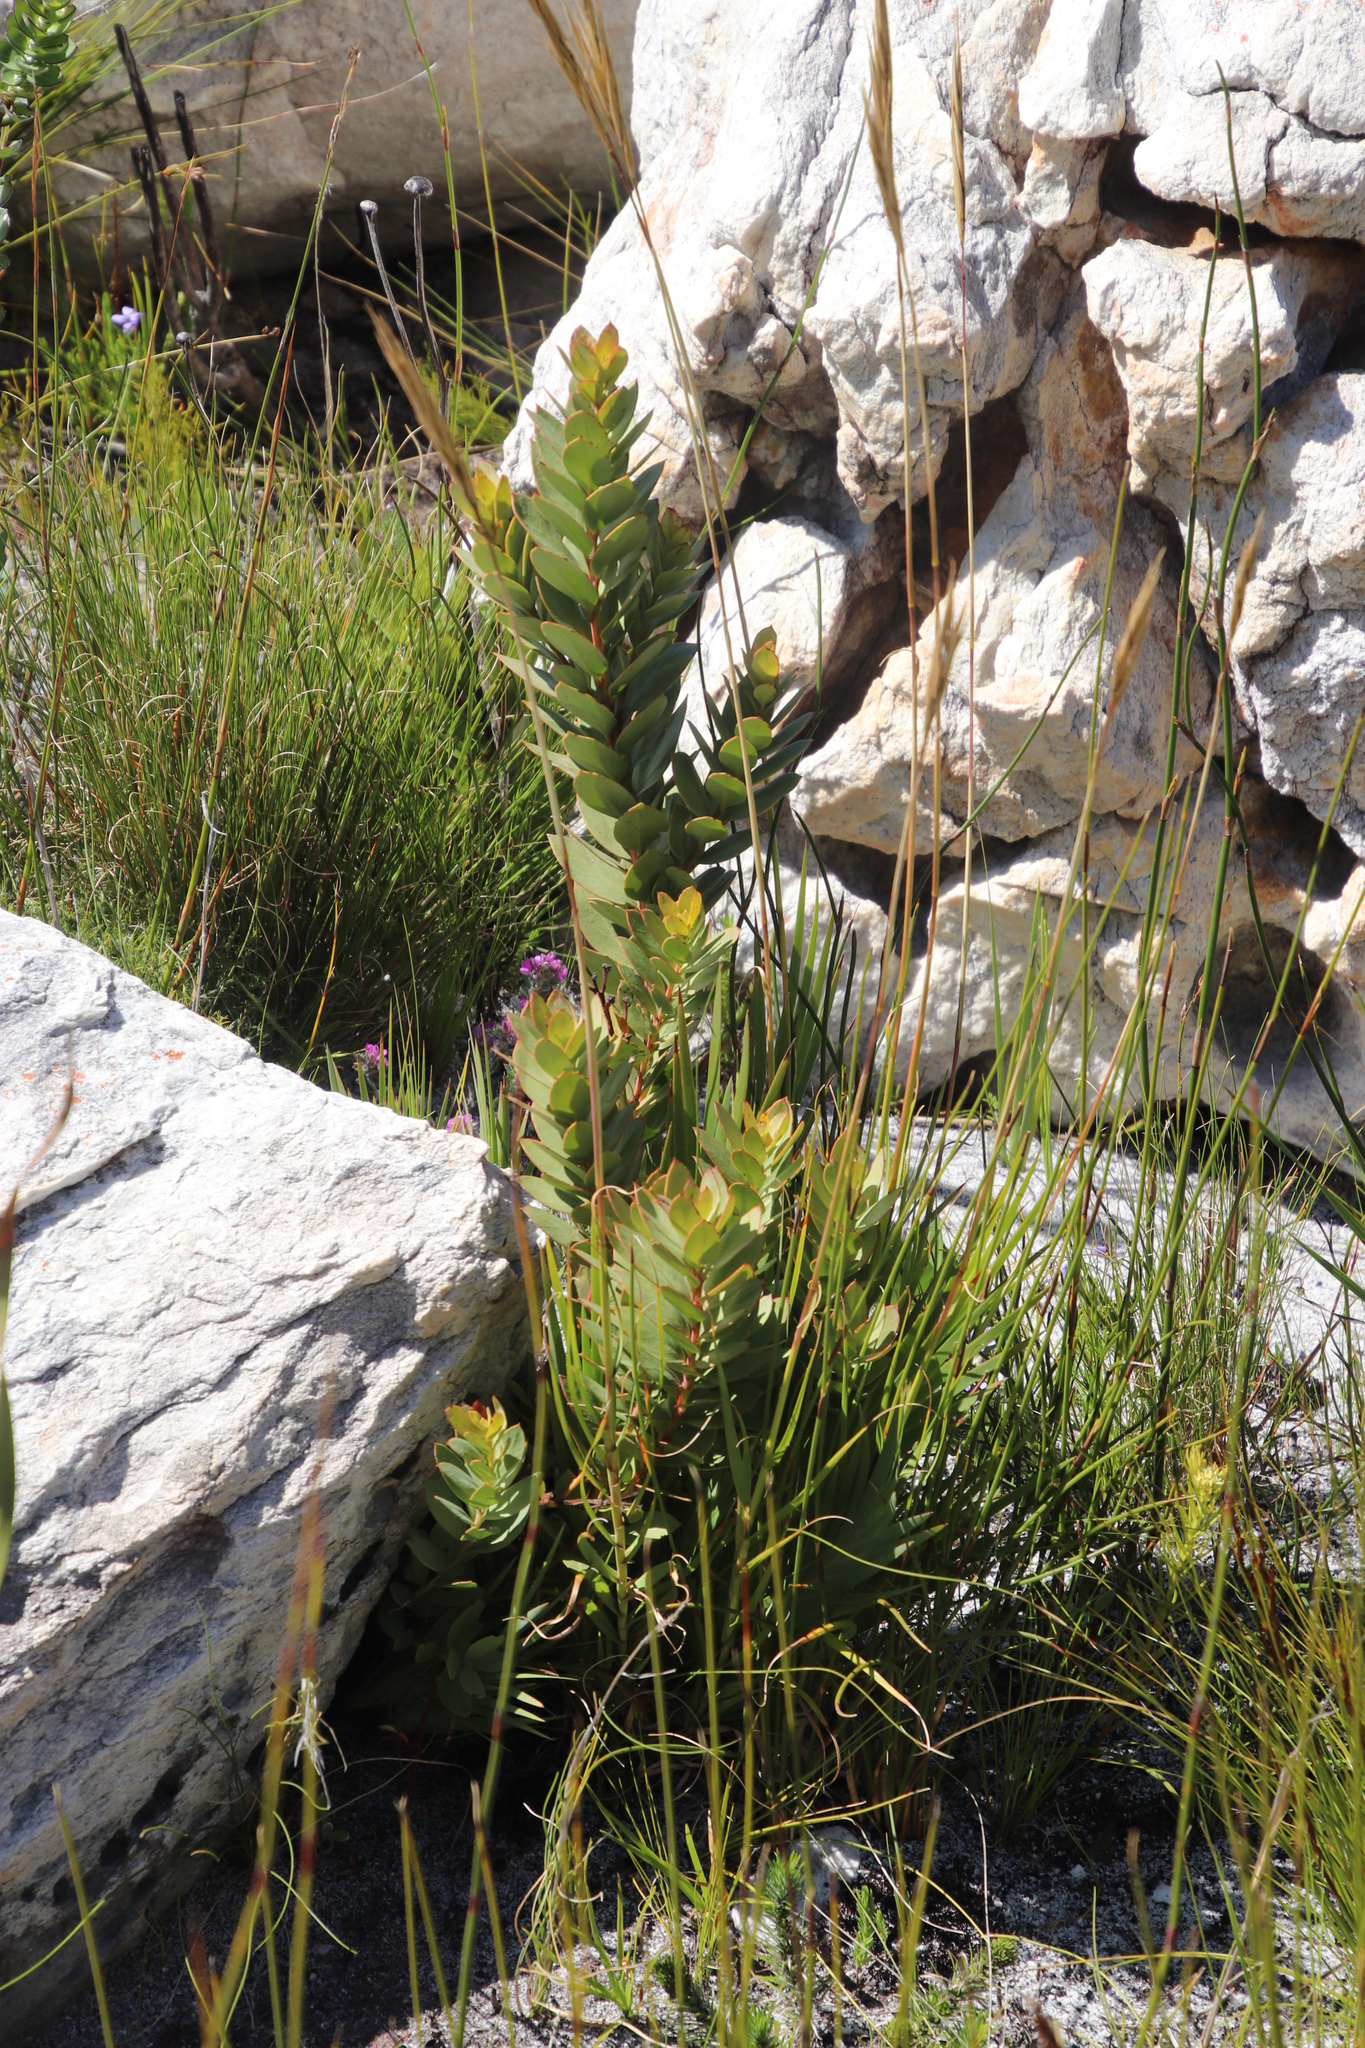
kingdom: Plantae
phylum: Tracheophyta
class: Magnoliopsida
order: Santalales
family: Santalaceae
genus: Osyris
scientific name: Osyris speciosa
